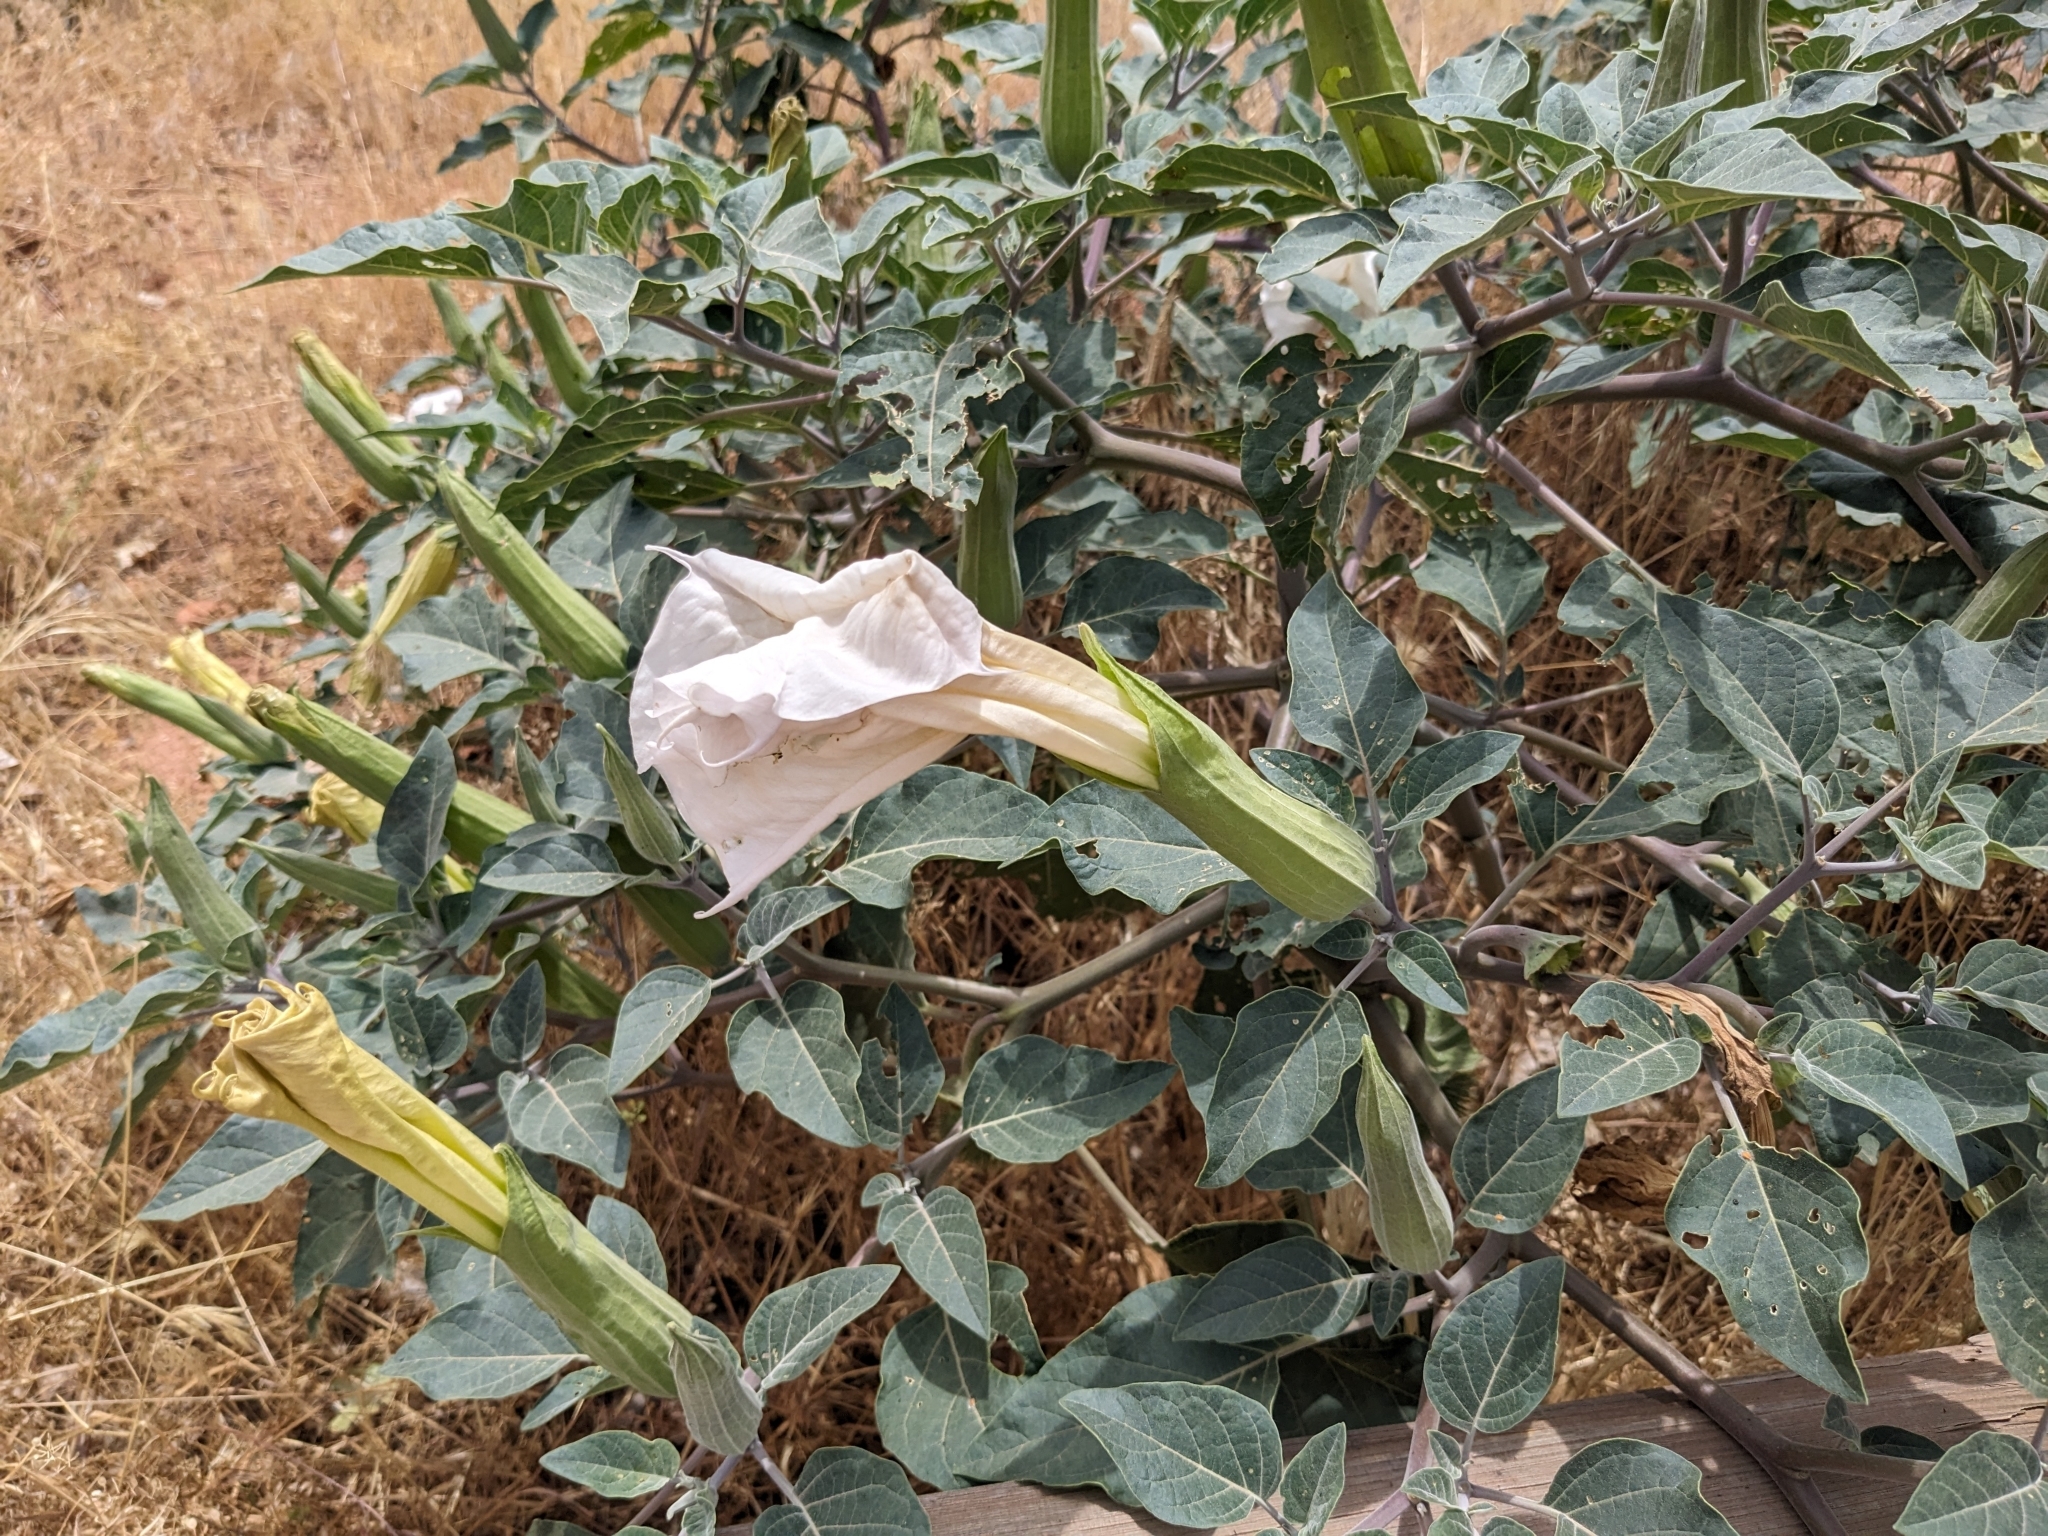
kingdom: Plantae
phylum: Tracheophyta
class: Magnoliopsida
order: Solanales
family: Solanaceae
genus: Datura
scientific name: Datura wrightii
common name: Sacred thorn-apple
